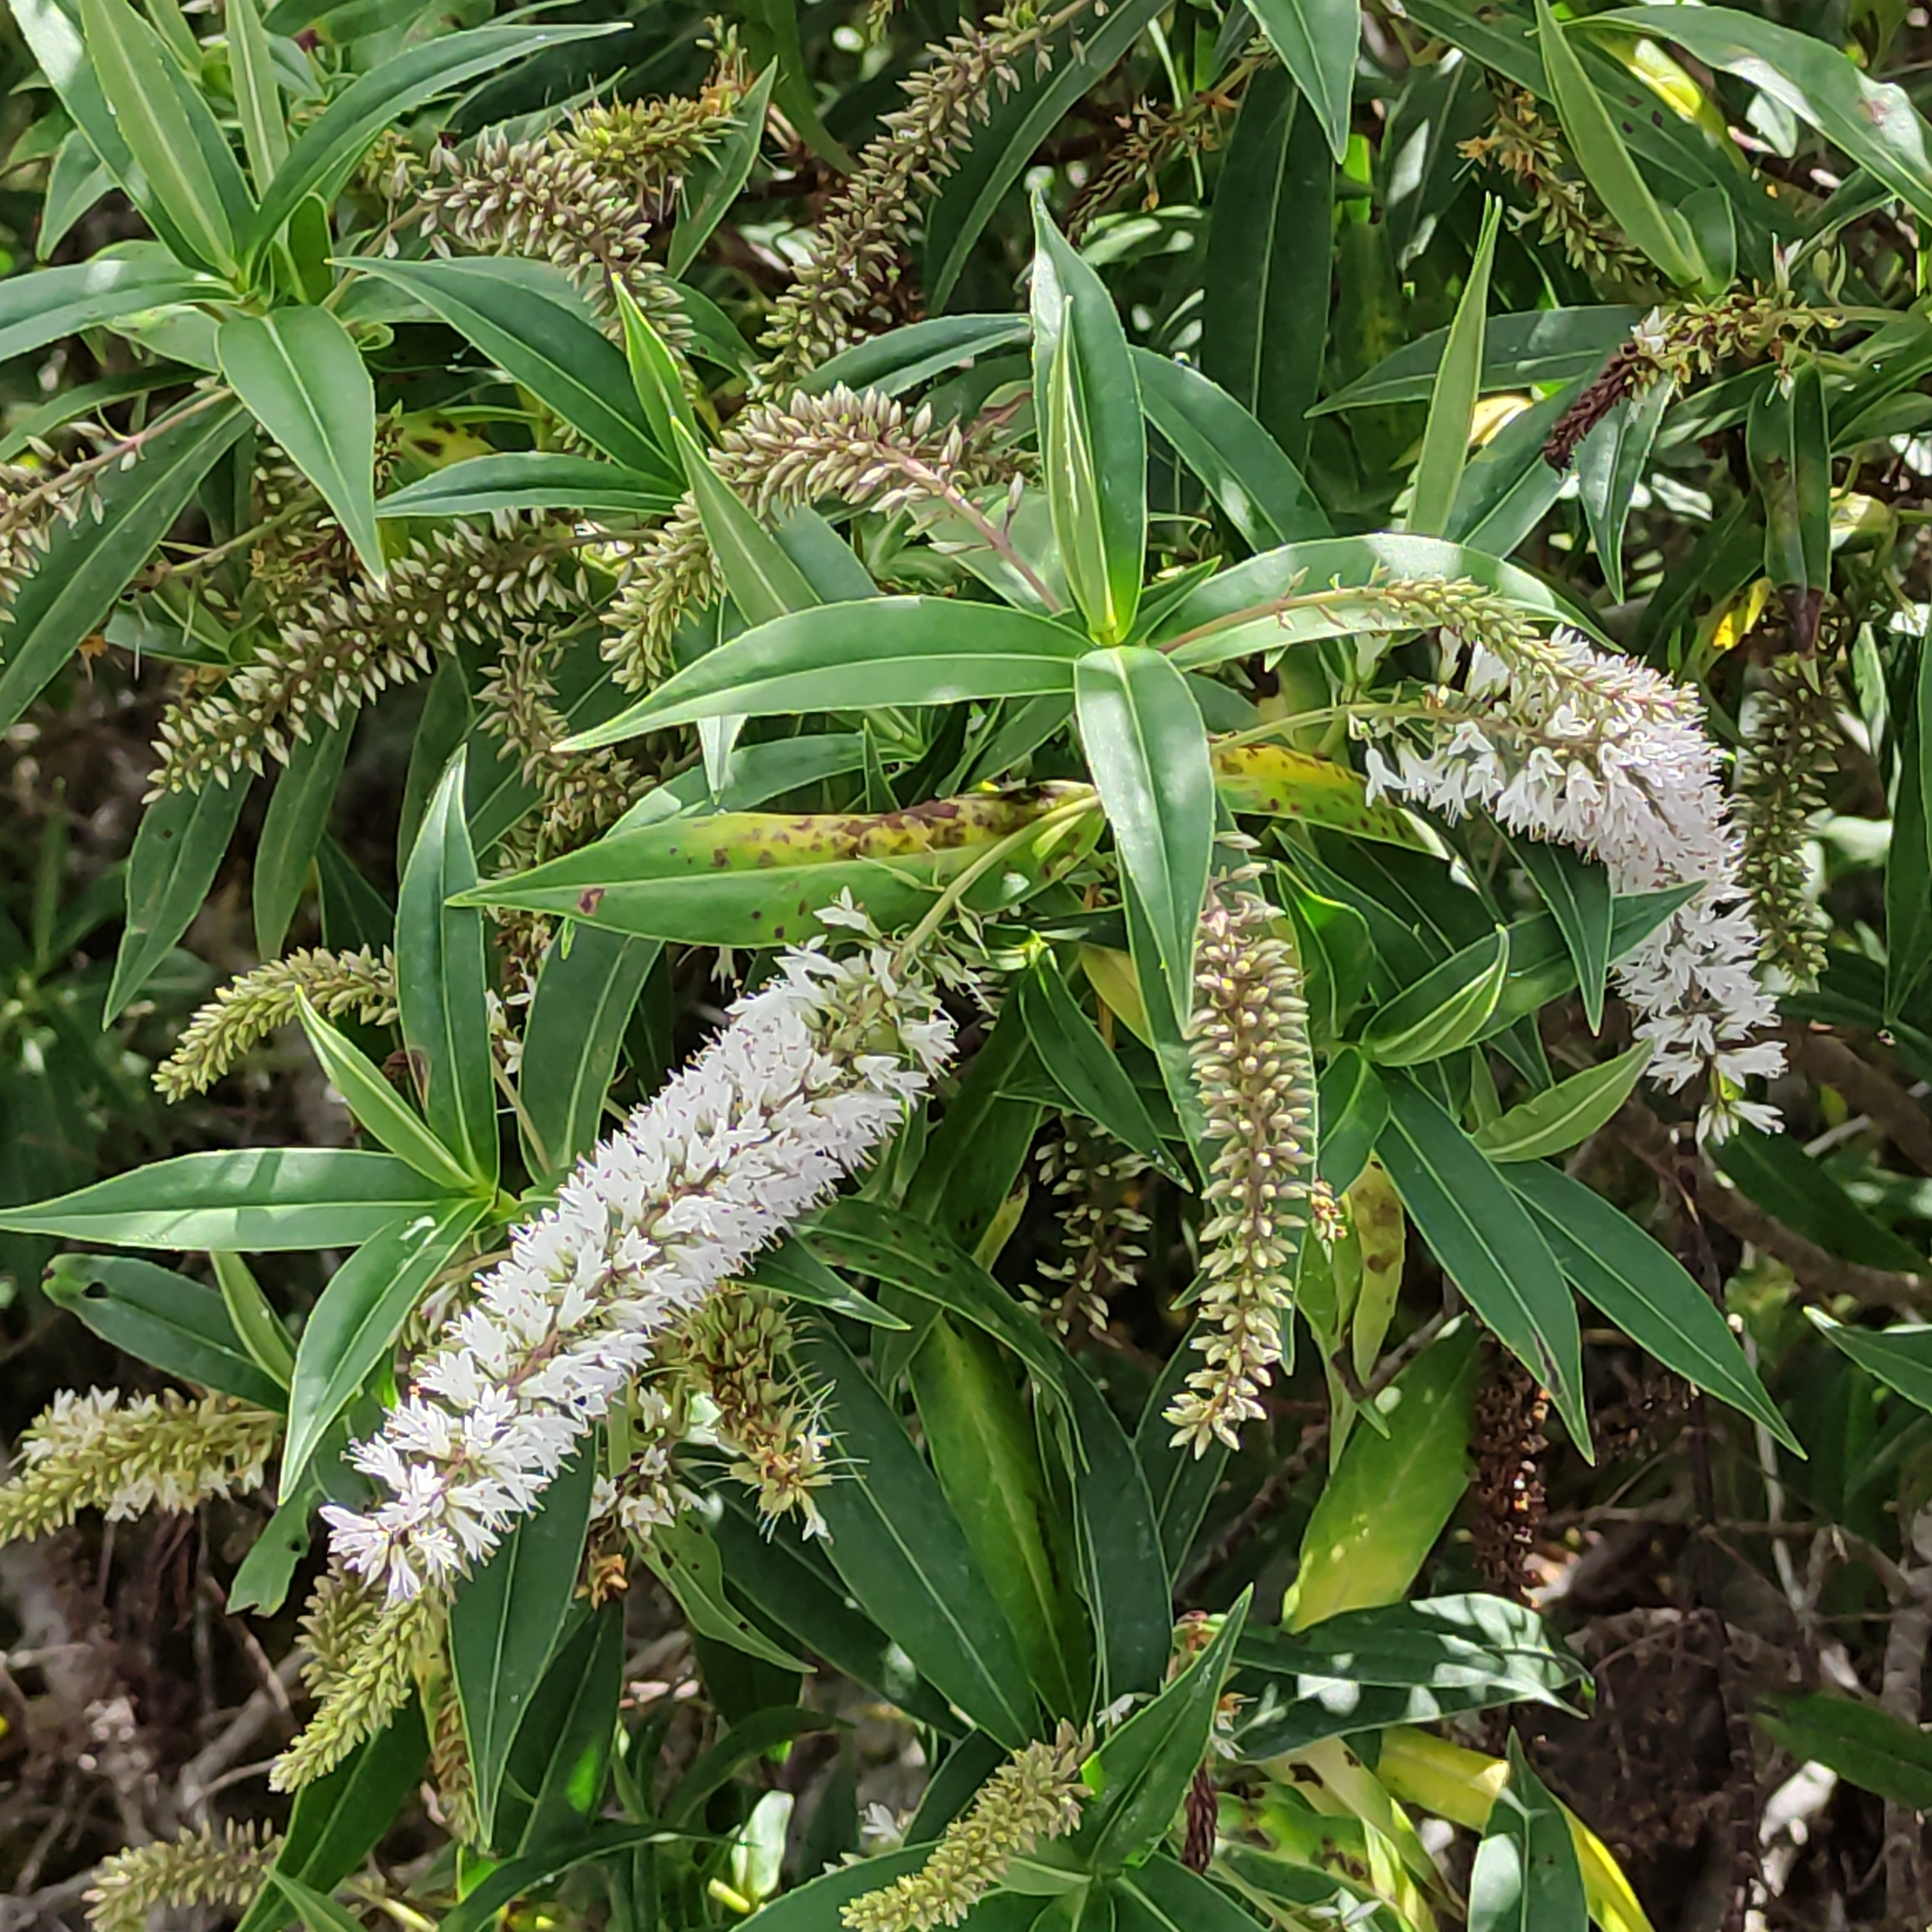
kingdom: Plantae
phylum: Tracheophyta
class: Magnoliopsida
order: Lamiales
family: Plantaginaceae
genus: Veronica
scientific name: Veronica salicifolia
